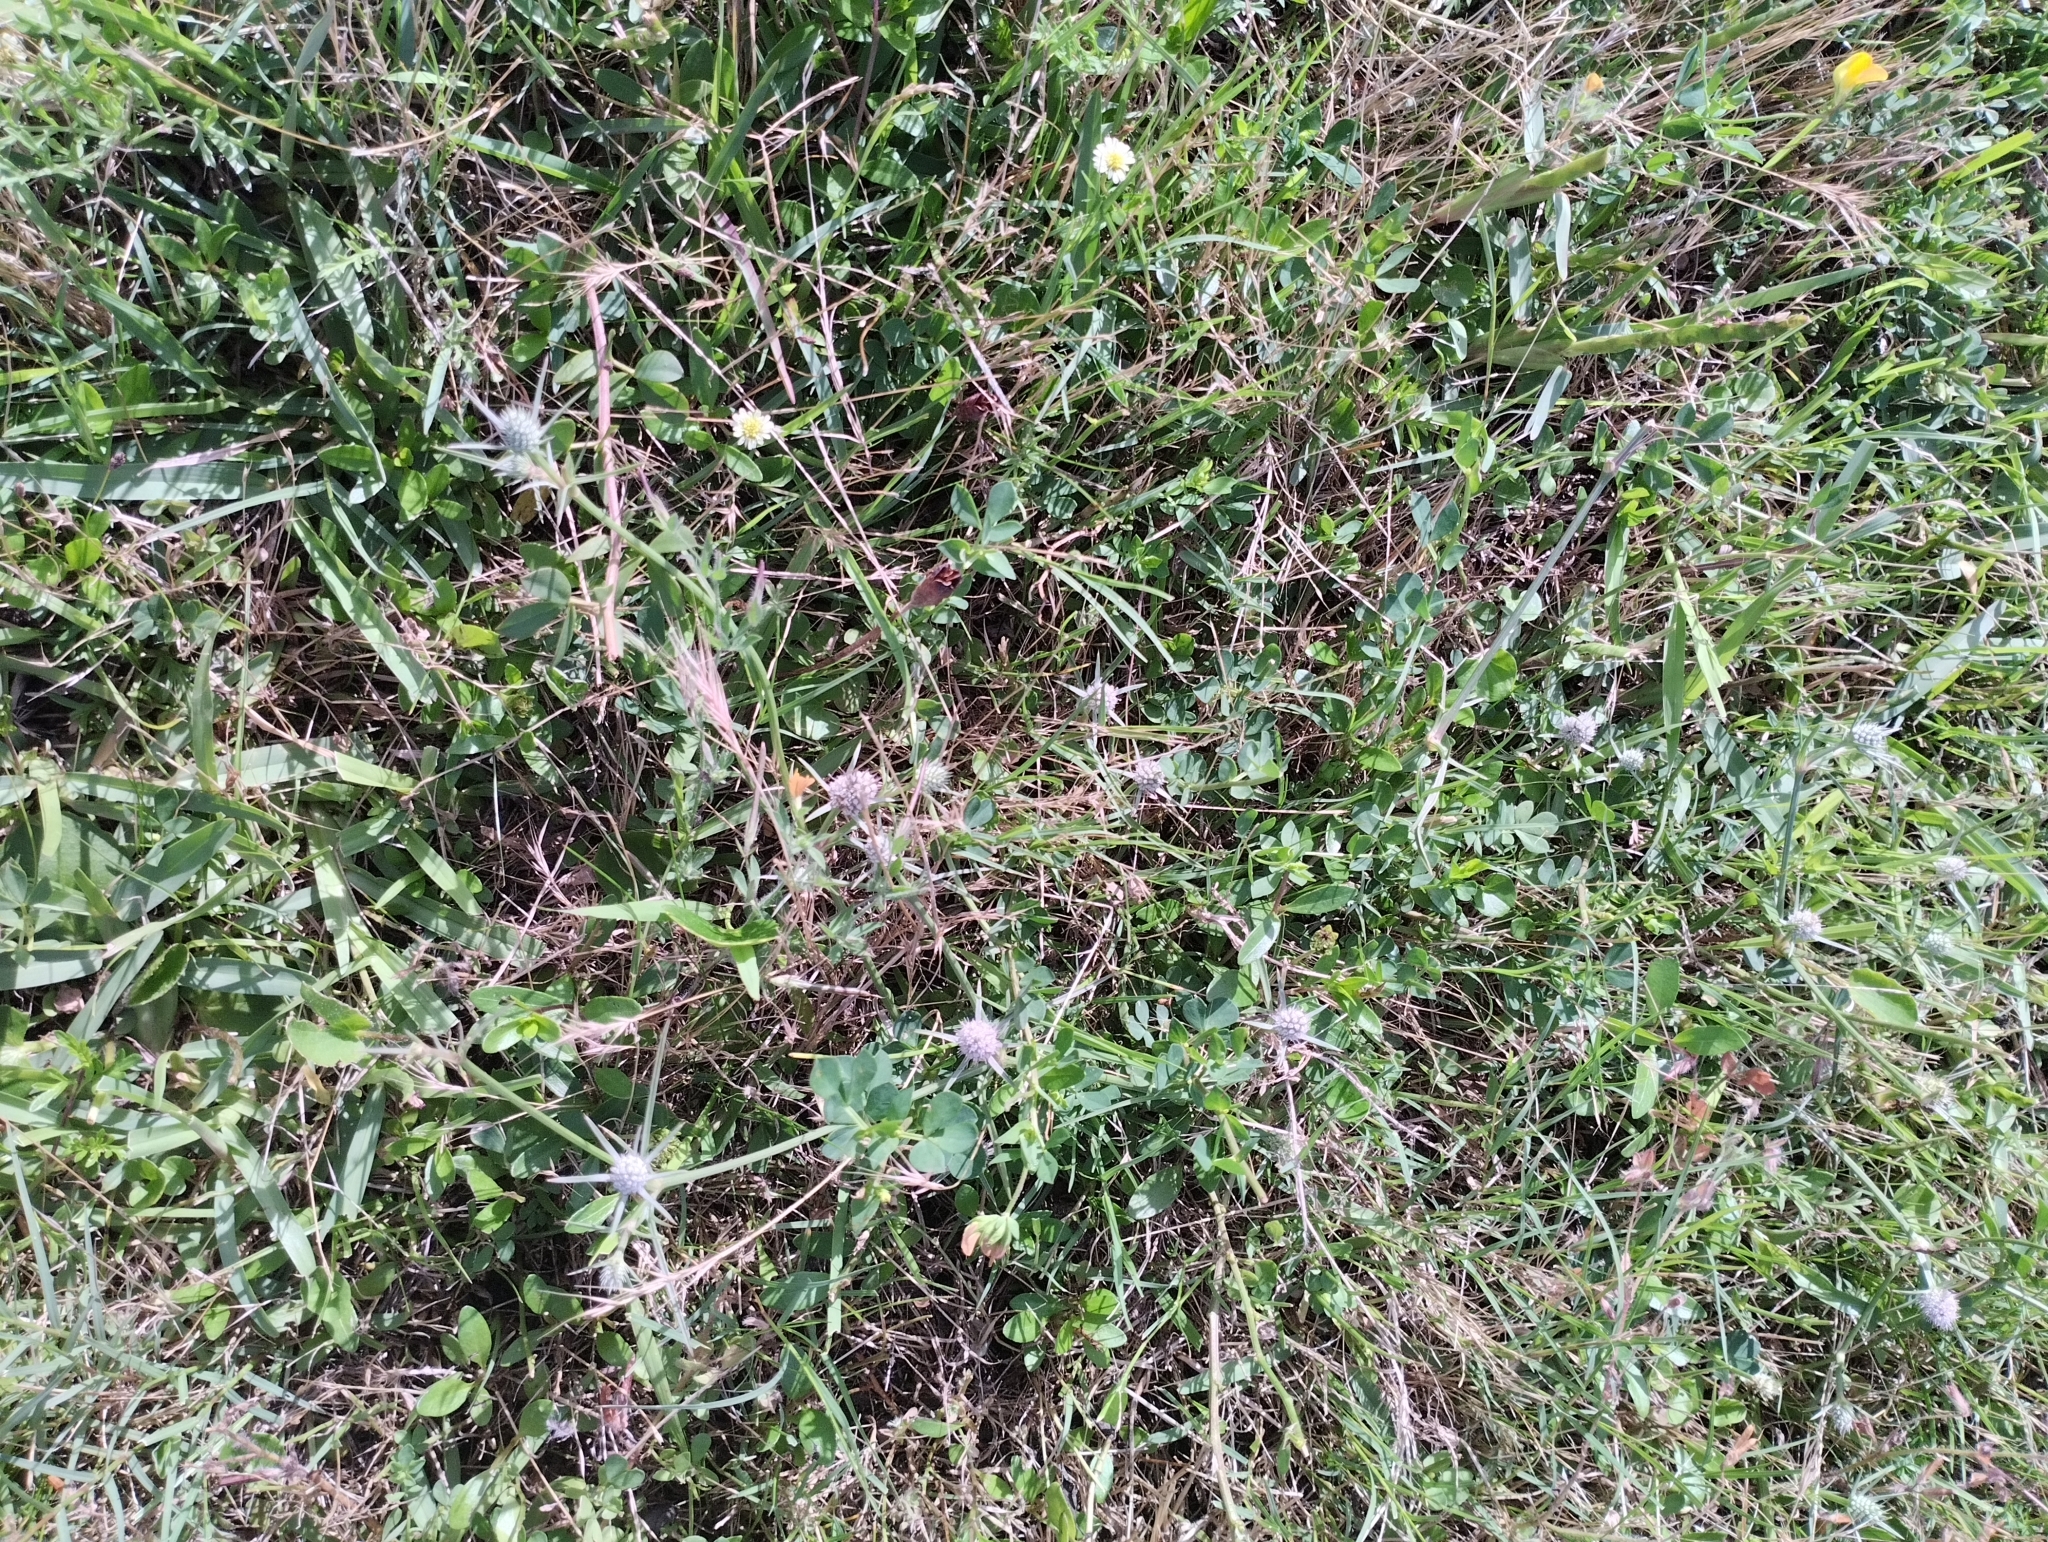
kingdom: Plantae
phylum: Tracheophyta
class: Magnoliopsida
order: Apiales
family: Apiaceae
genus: Eryngium
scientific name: Eryngium echinatum
